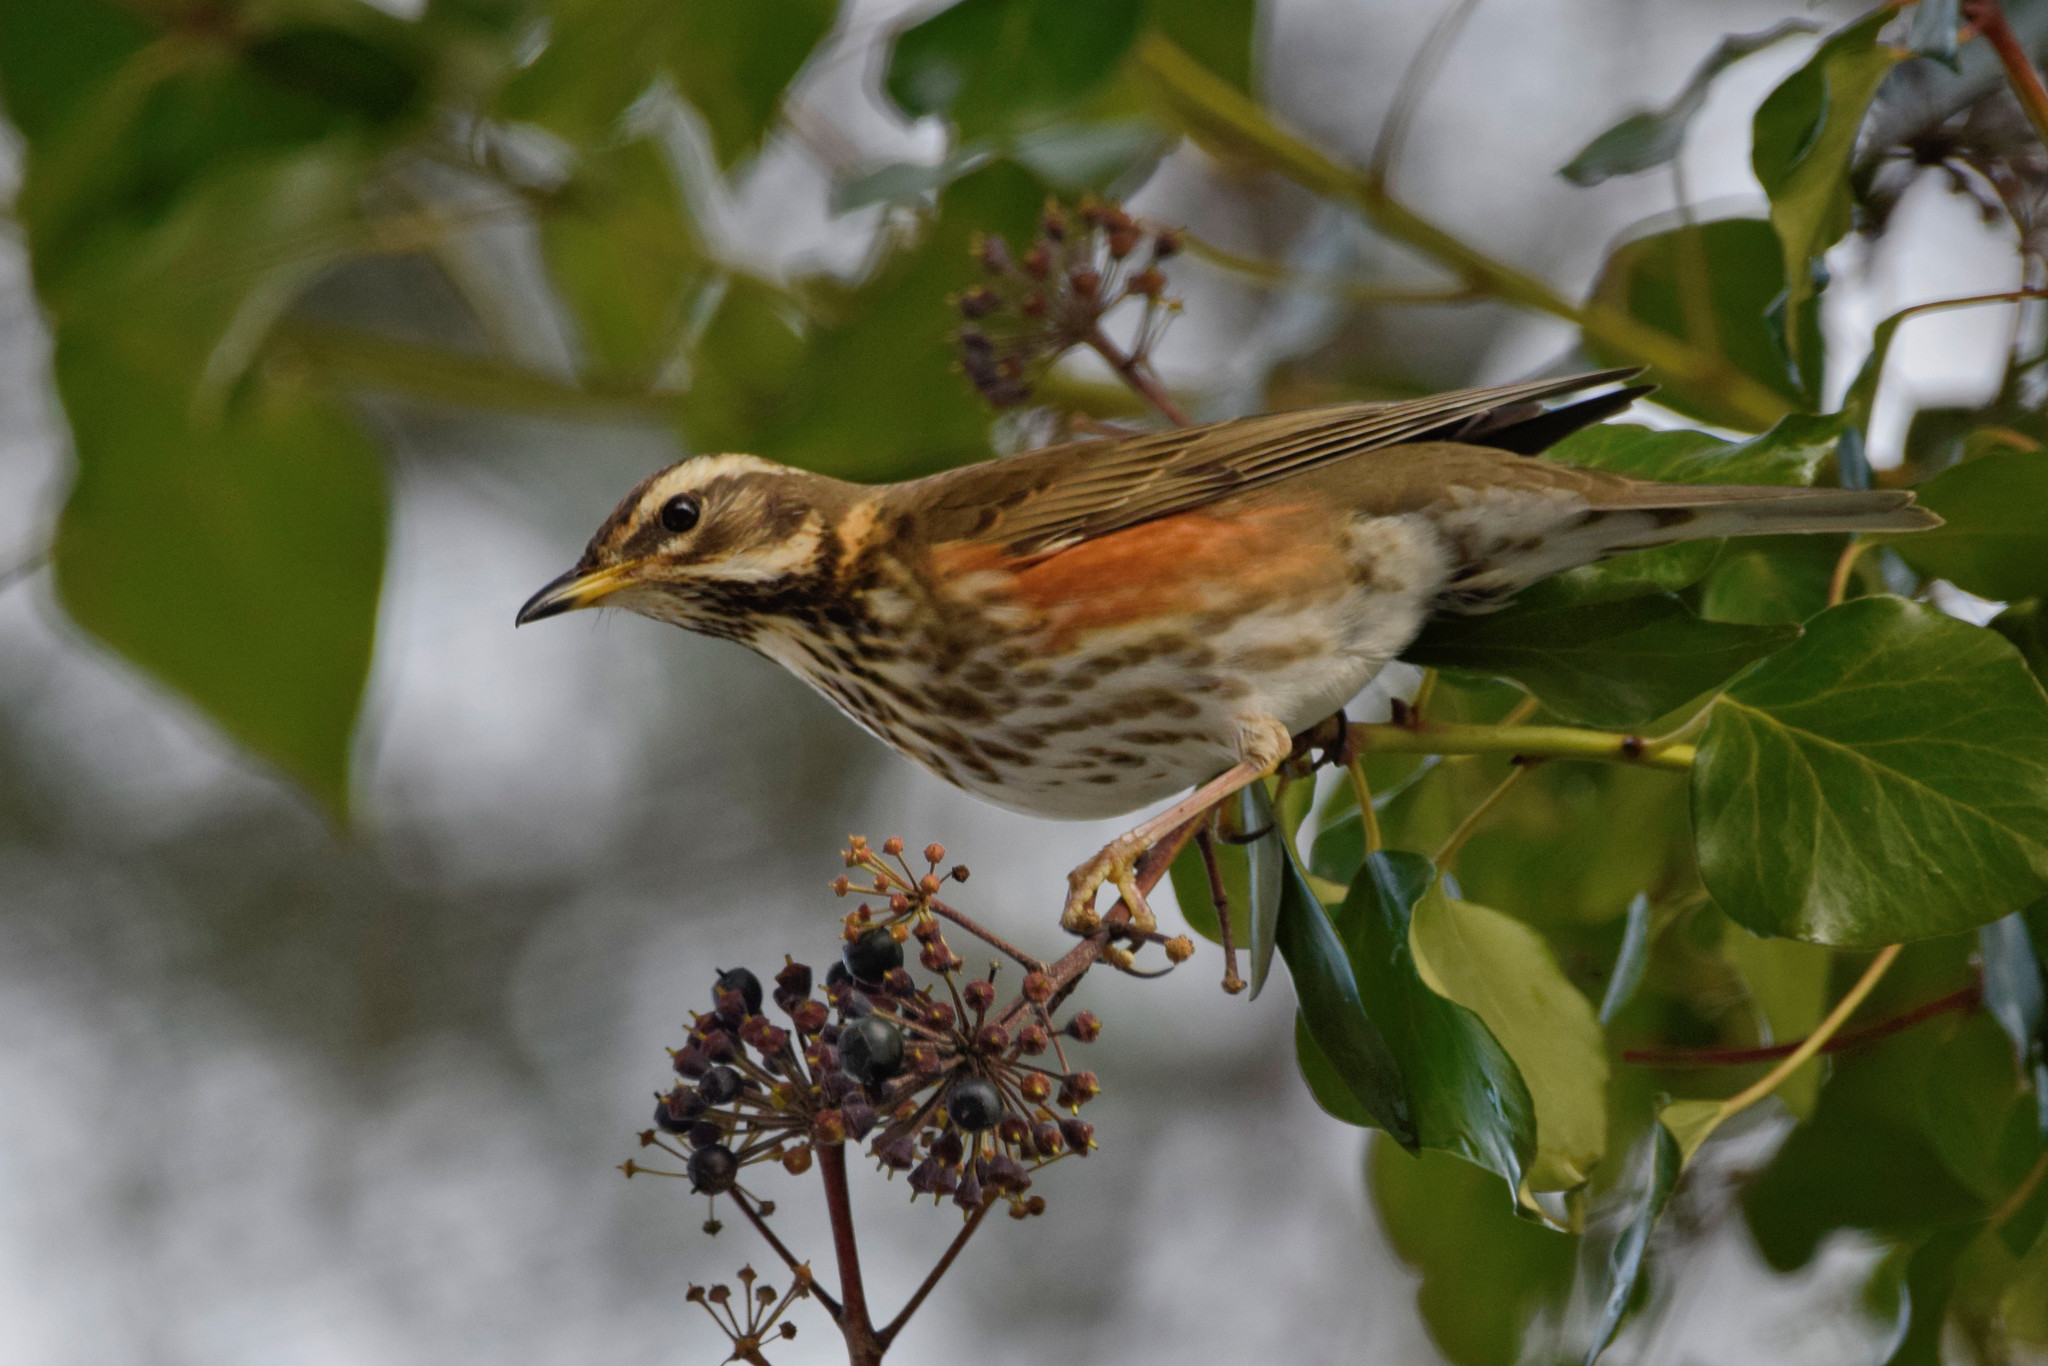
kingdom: Animalia
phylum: Chordata
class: Aves
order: Passeriformes
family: Turdidae
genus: Turdus
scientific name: Turdus iliacus
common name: Redwing
